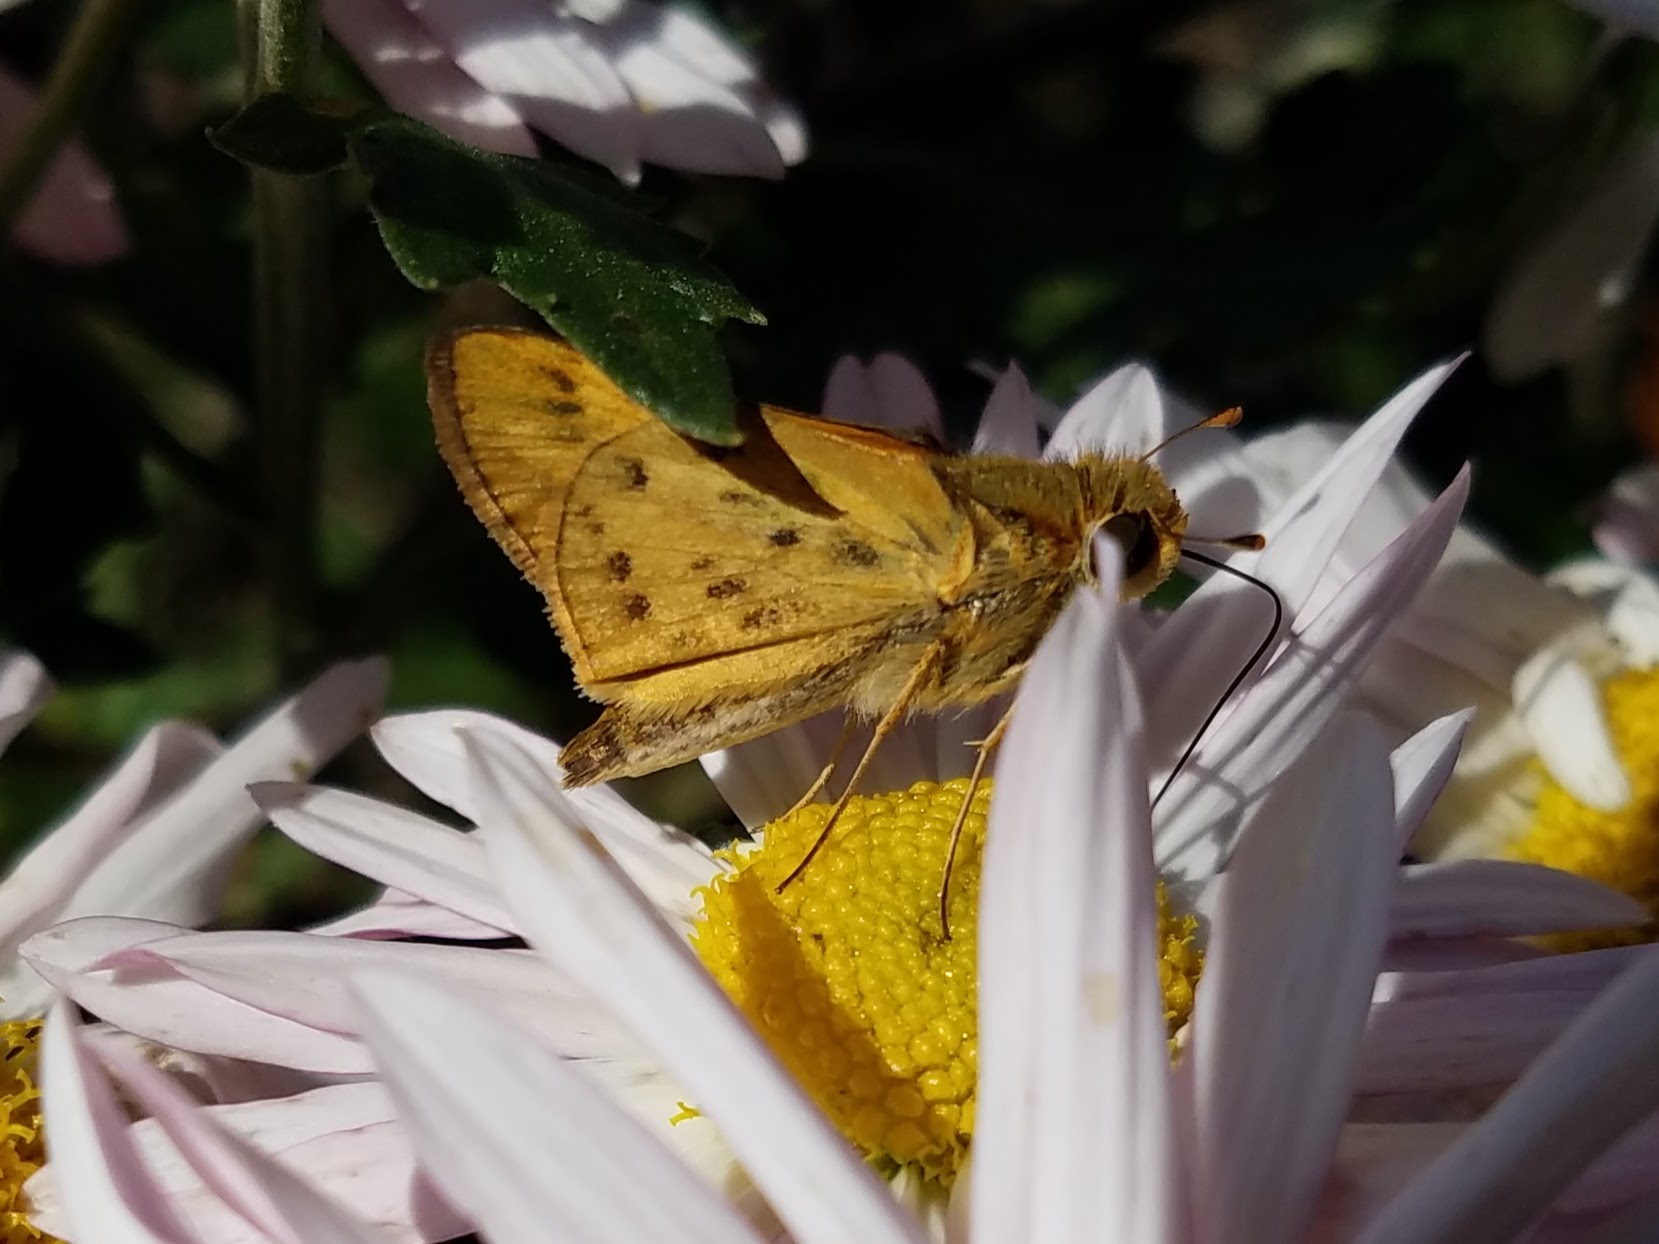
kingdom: Animalia
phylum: Arthropoda
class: Insecta
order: Lepidoptera
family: Hesperiidae
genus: Hylephila
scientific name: Hylephila phyleus
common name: Fiery skipper
